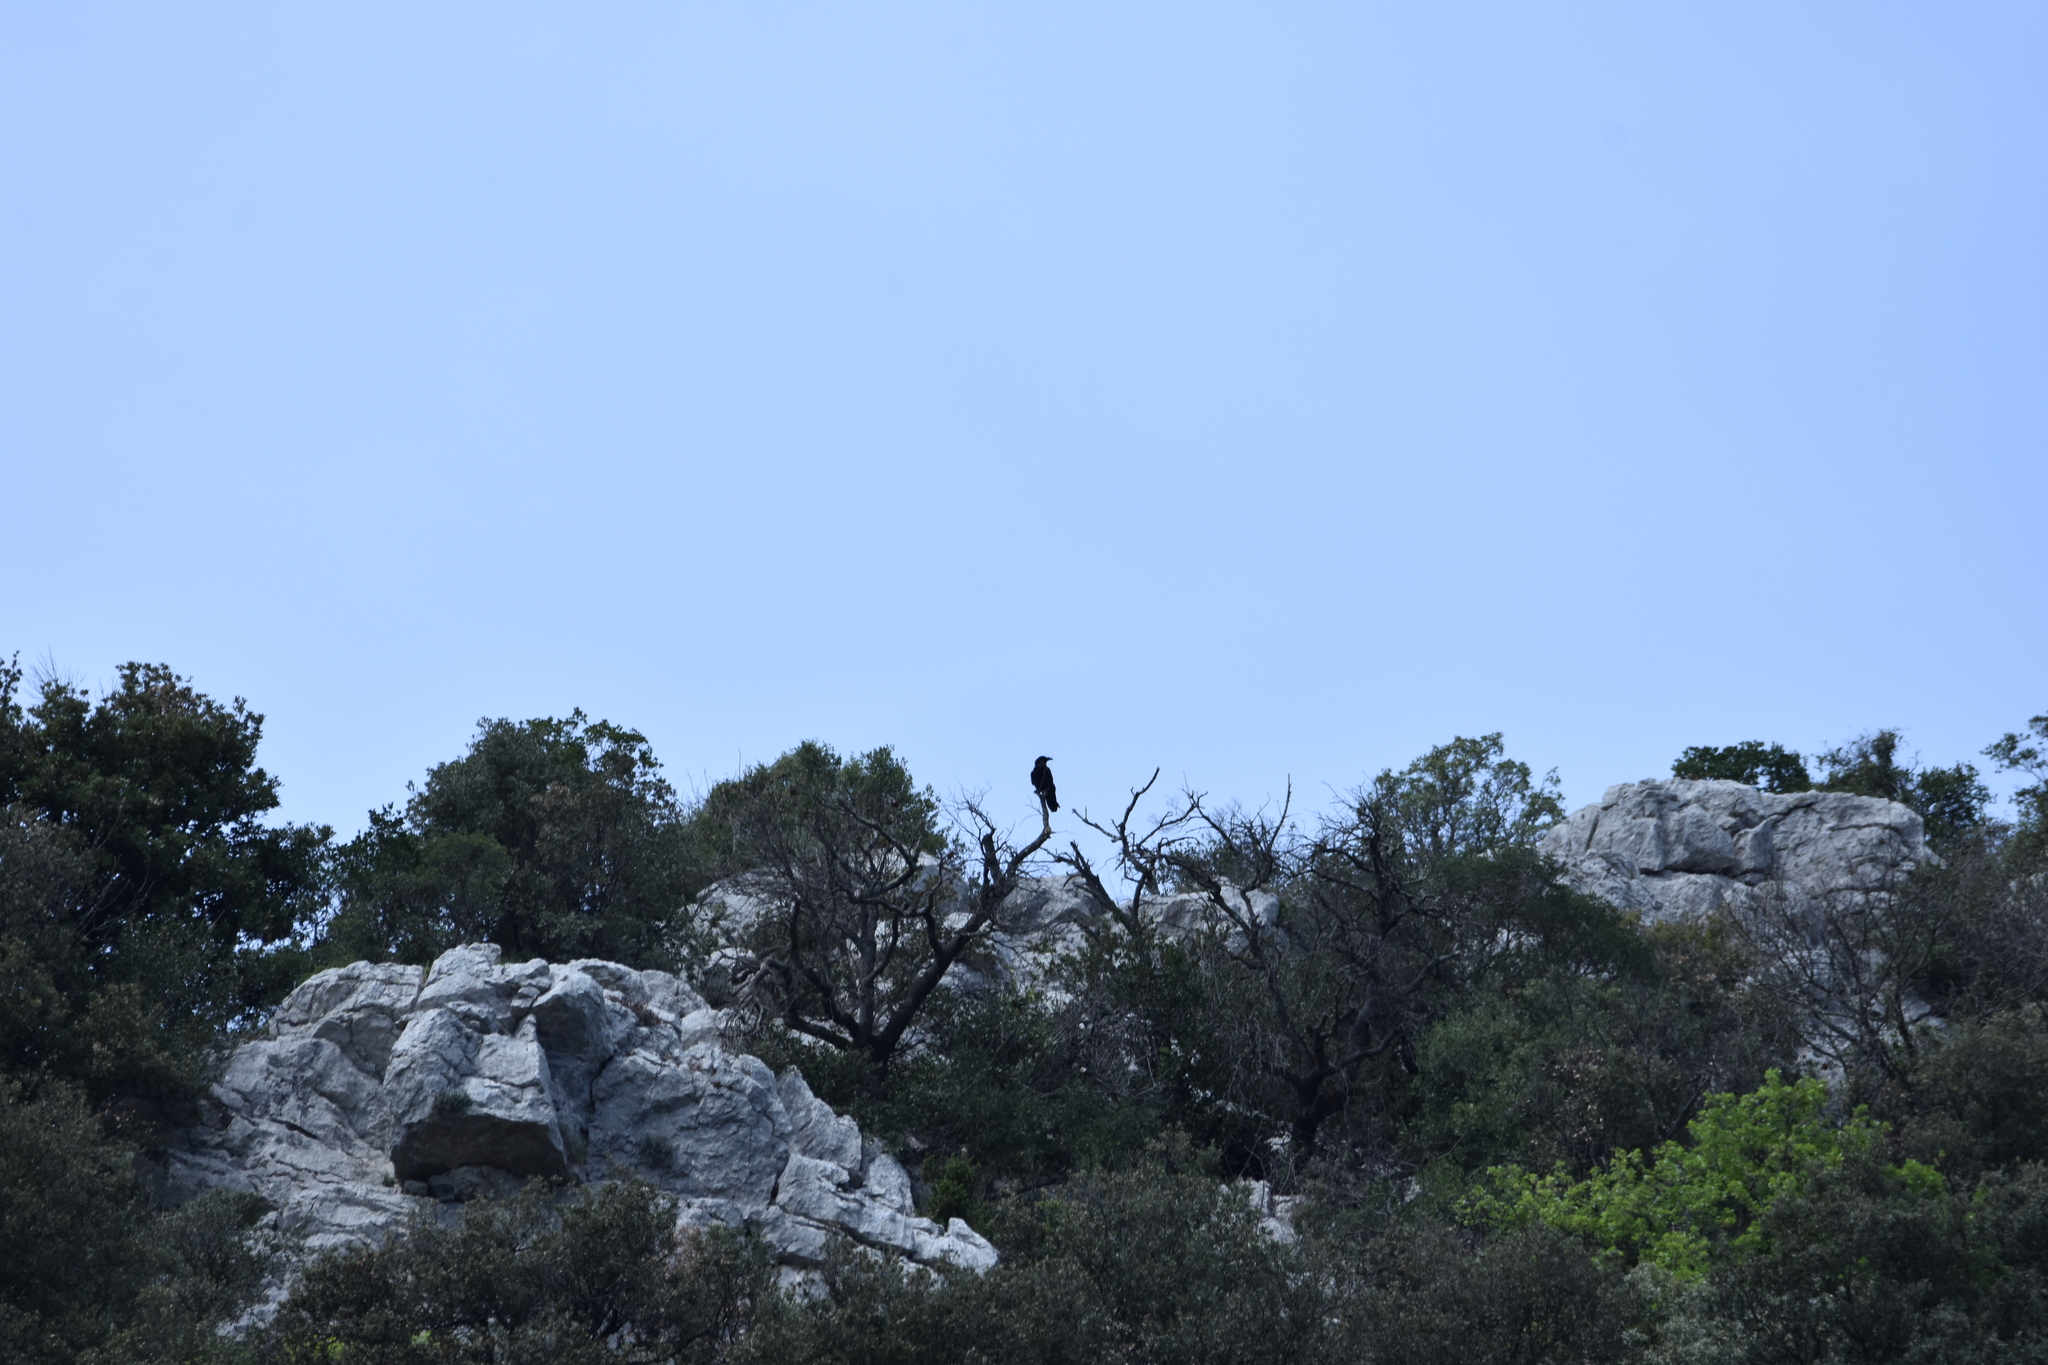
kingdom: Animalia
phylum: Chordata
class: Aves
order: Passeriformes
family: Corvidae
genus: Corvus
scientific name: Corvus corax
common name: Common raven
